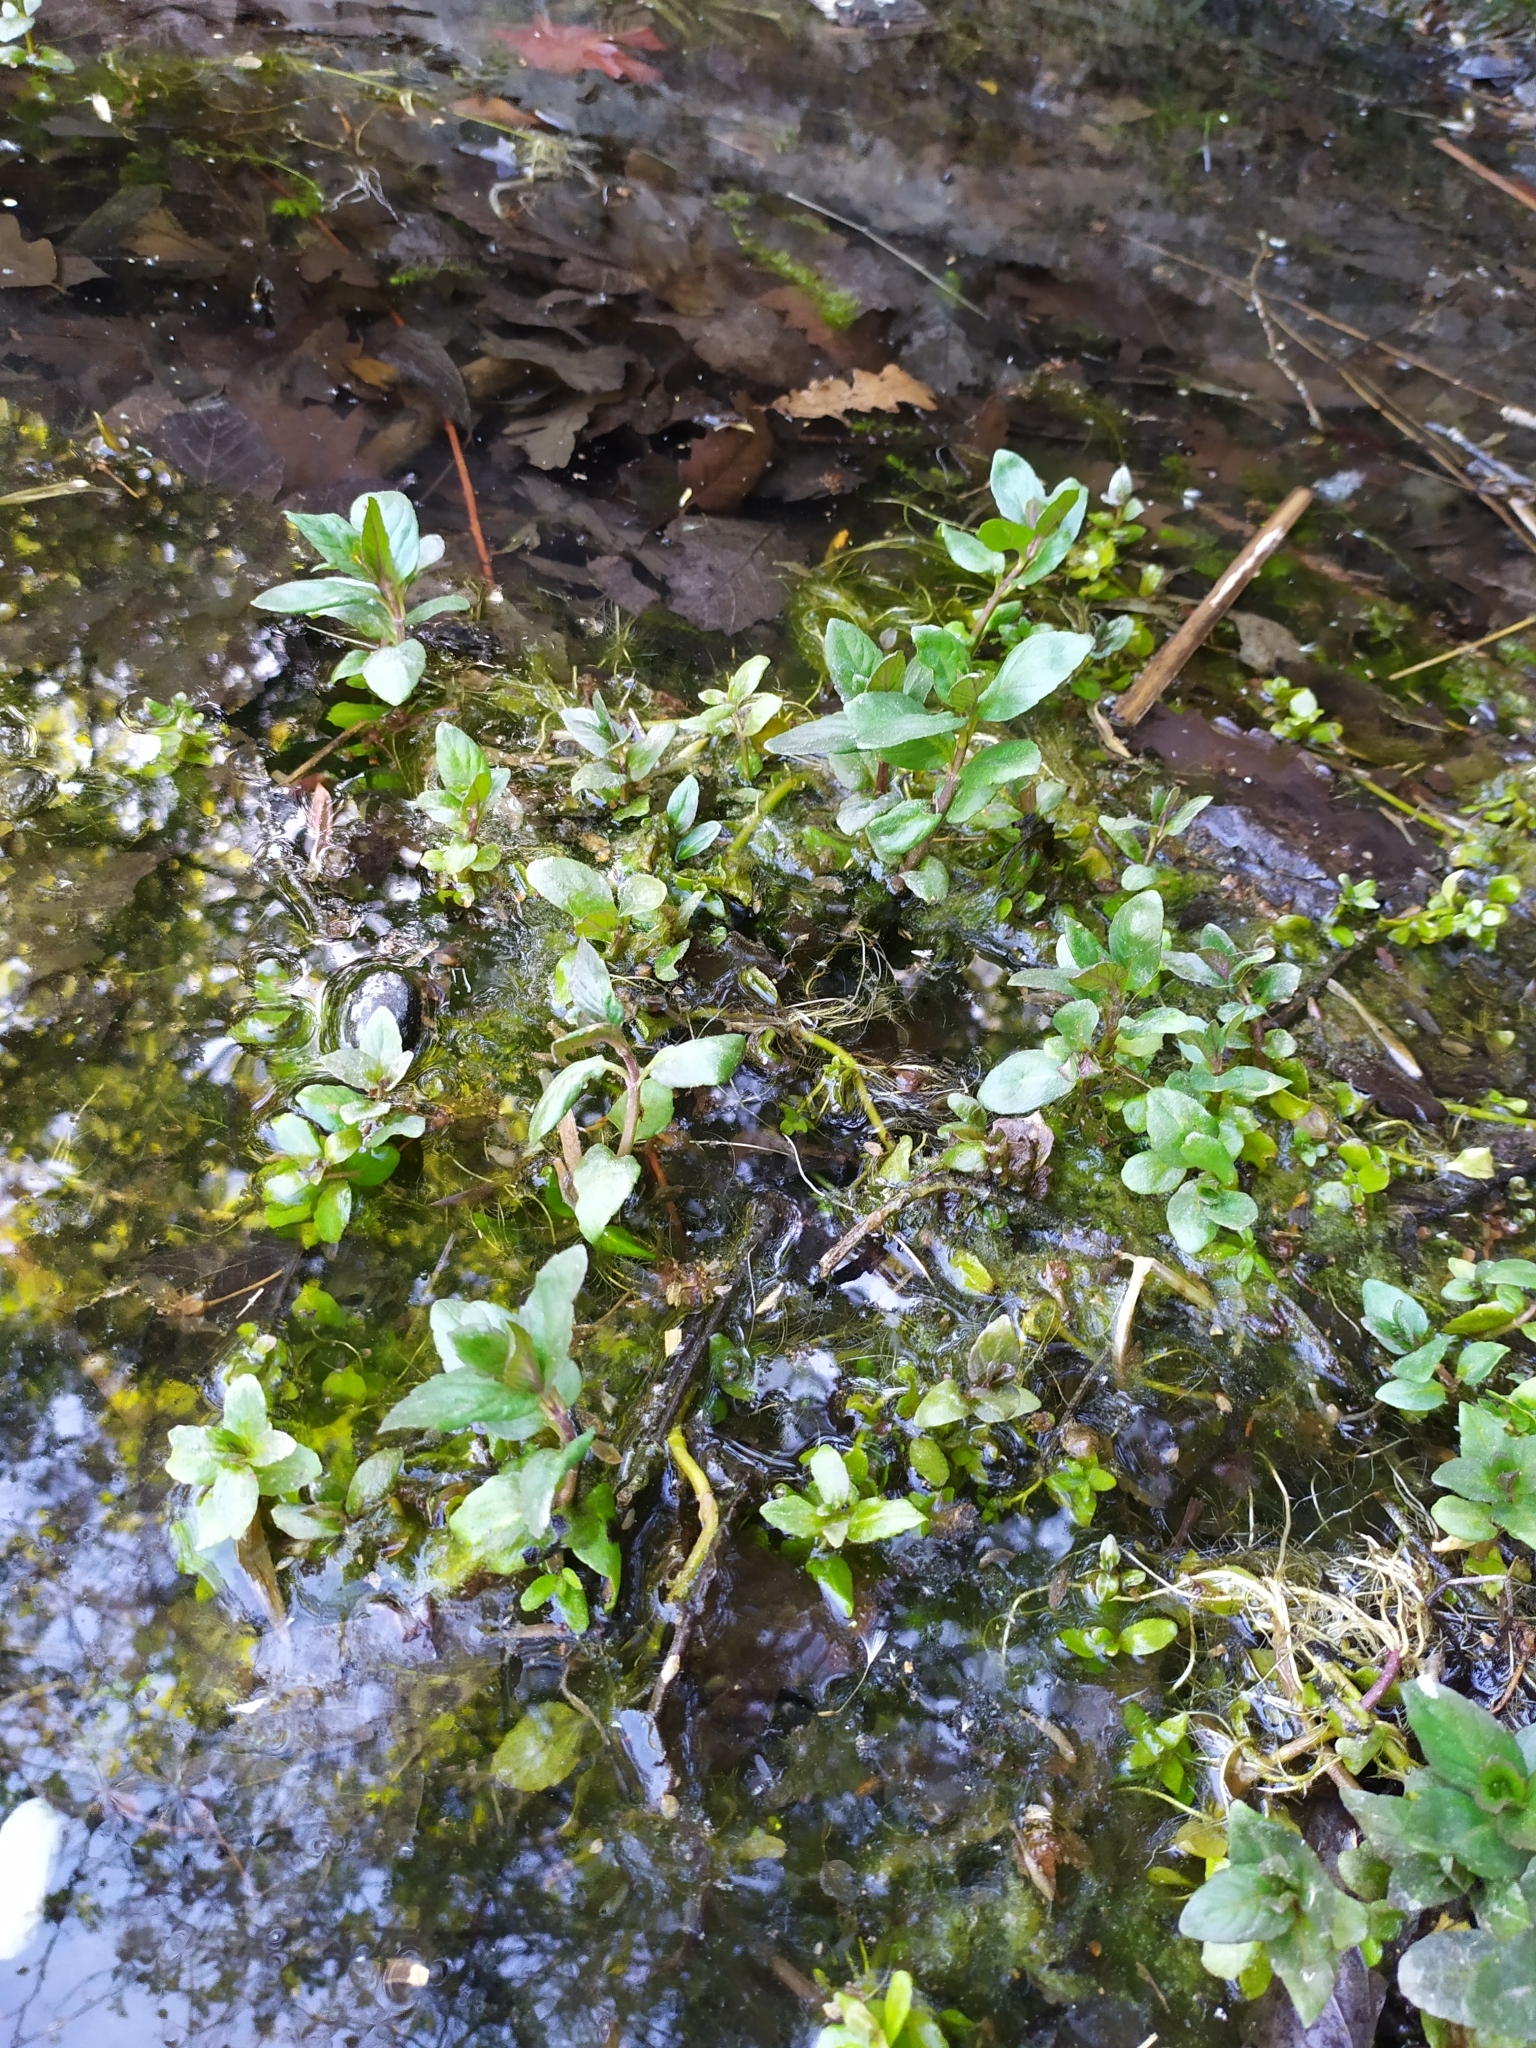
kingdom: Plantae
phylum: Tracheophyta
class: Magnoliopsida
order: Lamiales
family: Lamiaceae
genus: Mentha
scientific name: Mentha aquatica
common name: Water mint
